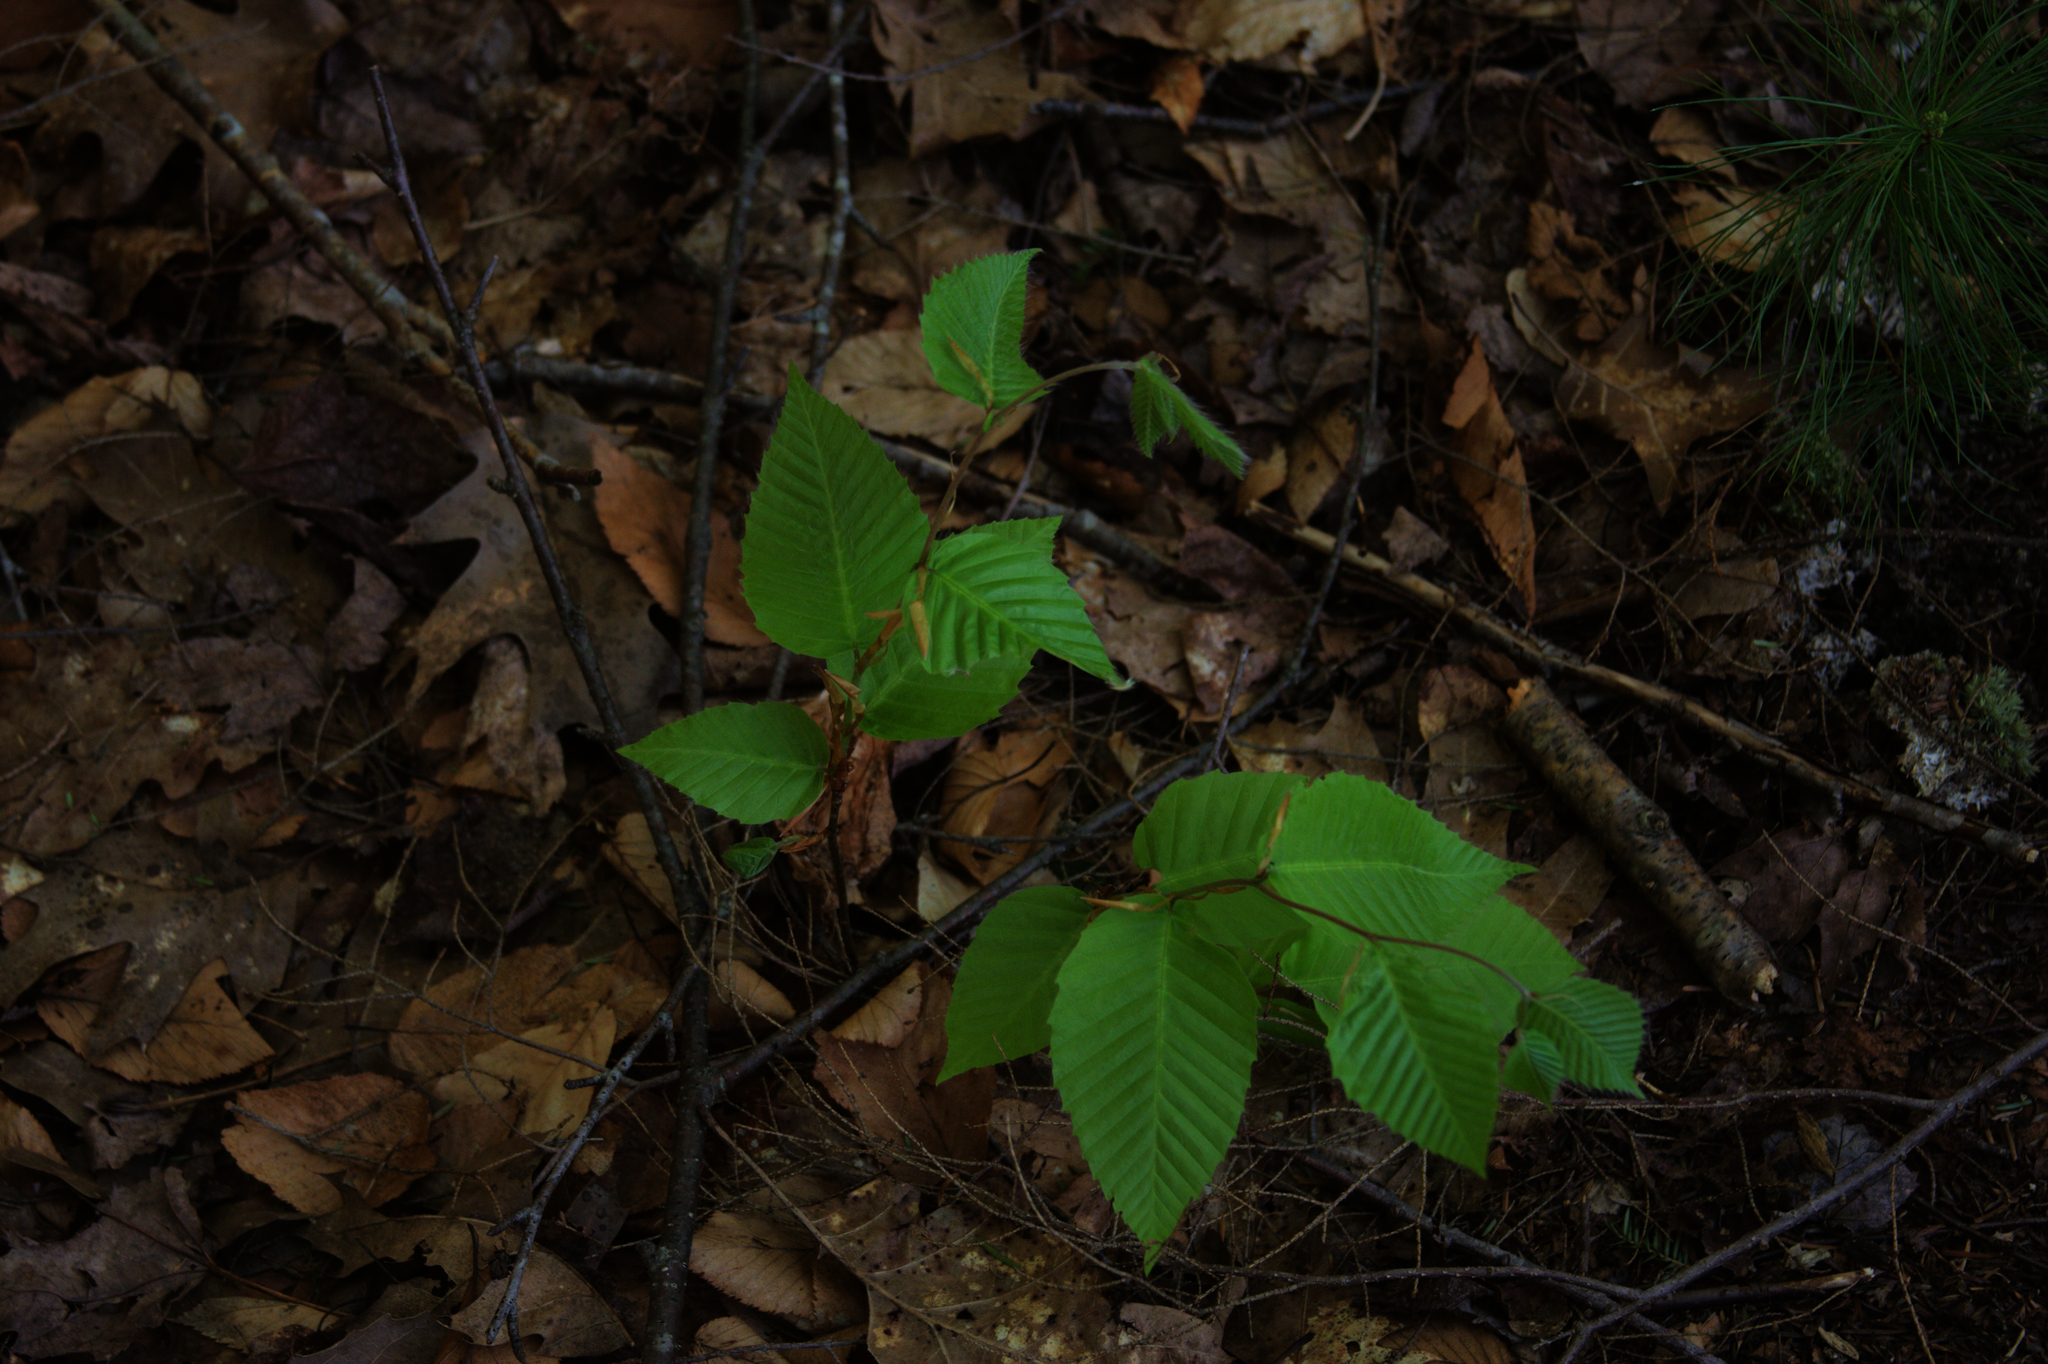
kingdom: Plantae
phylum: Tracheophyta
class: Pinopsida
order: Pinales
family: Pinaceae
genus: Pinus
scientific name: Pinus strobus
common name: Weymouth pine
